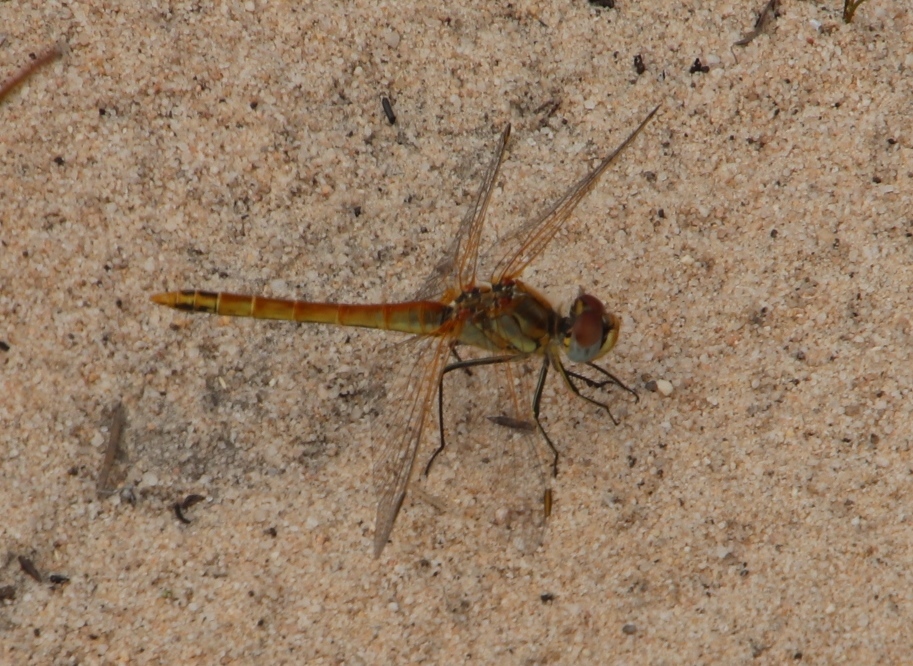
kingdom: Animalia
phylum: Arthropoda
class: Insecta
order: Odonata
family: Libellulidae
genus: Sympetrum
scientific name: Sympetrum fonscolombii
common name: Red-veined darter
